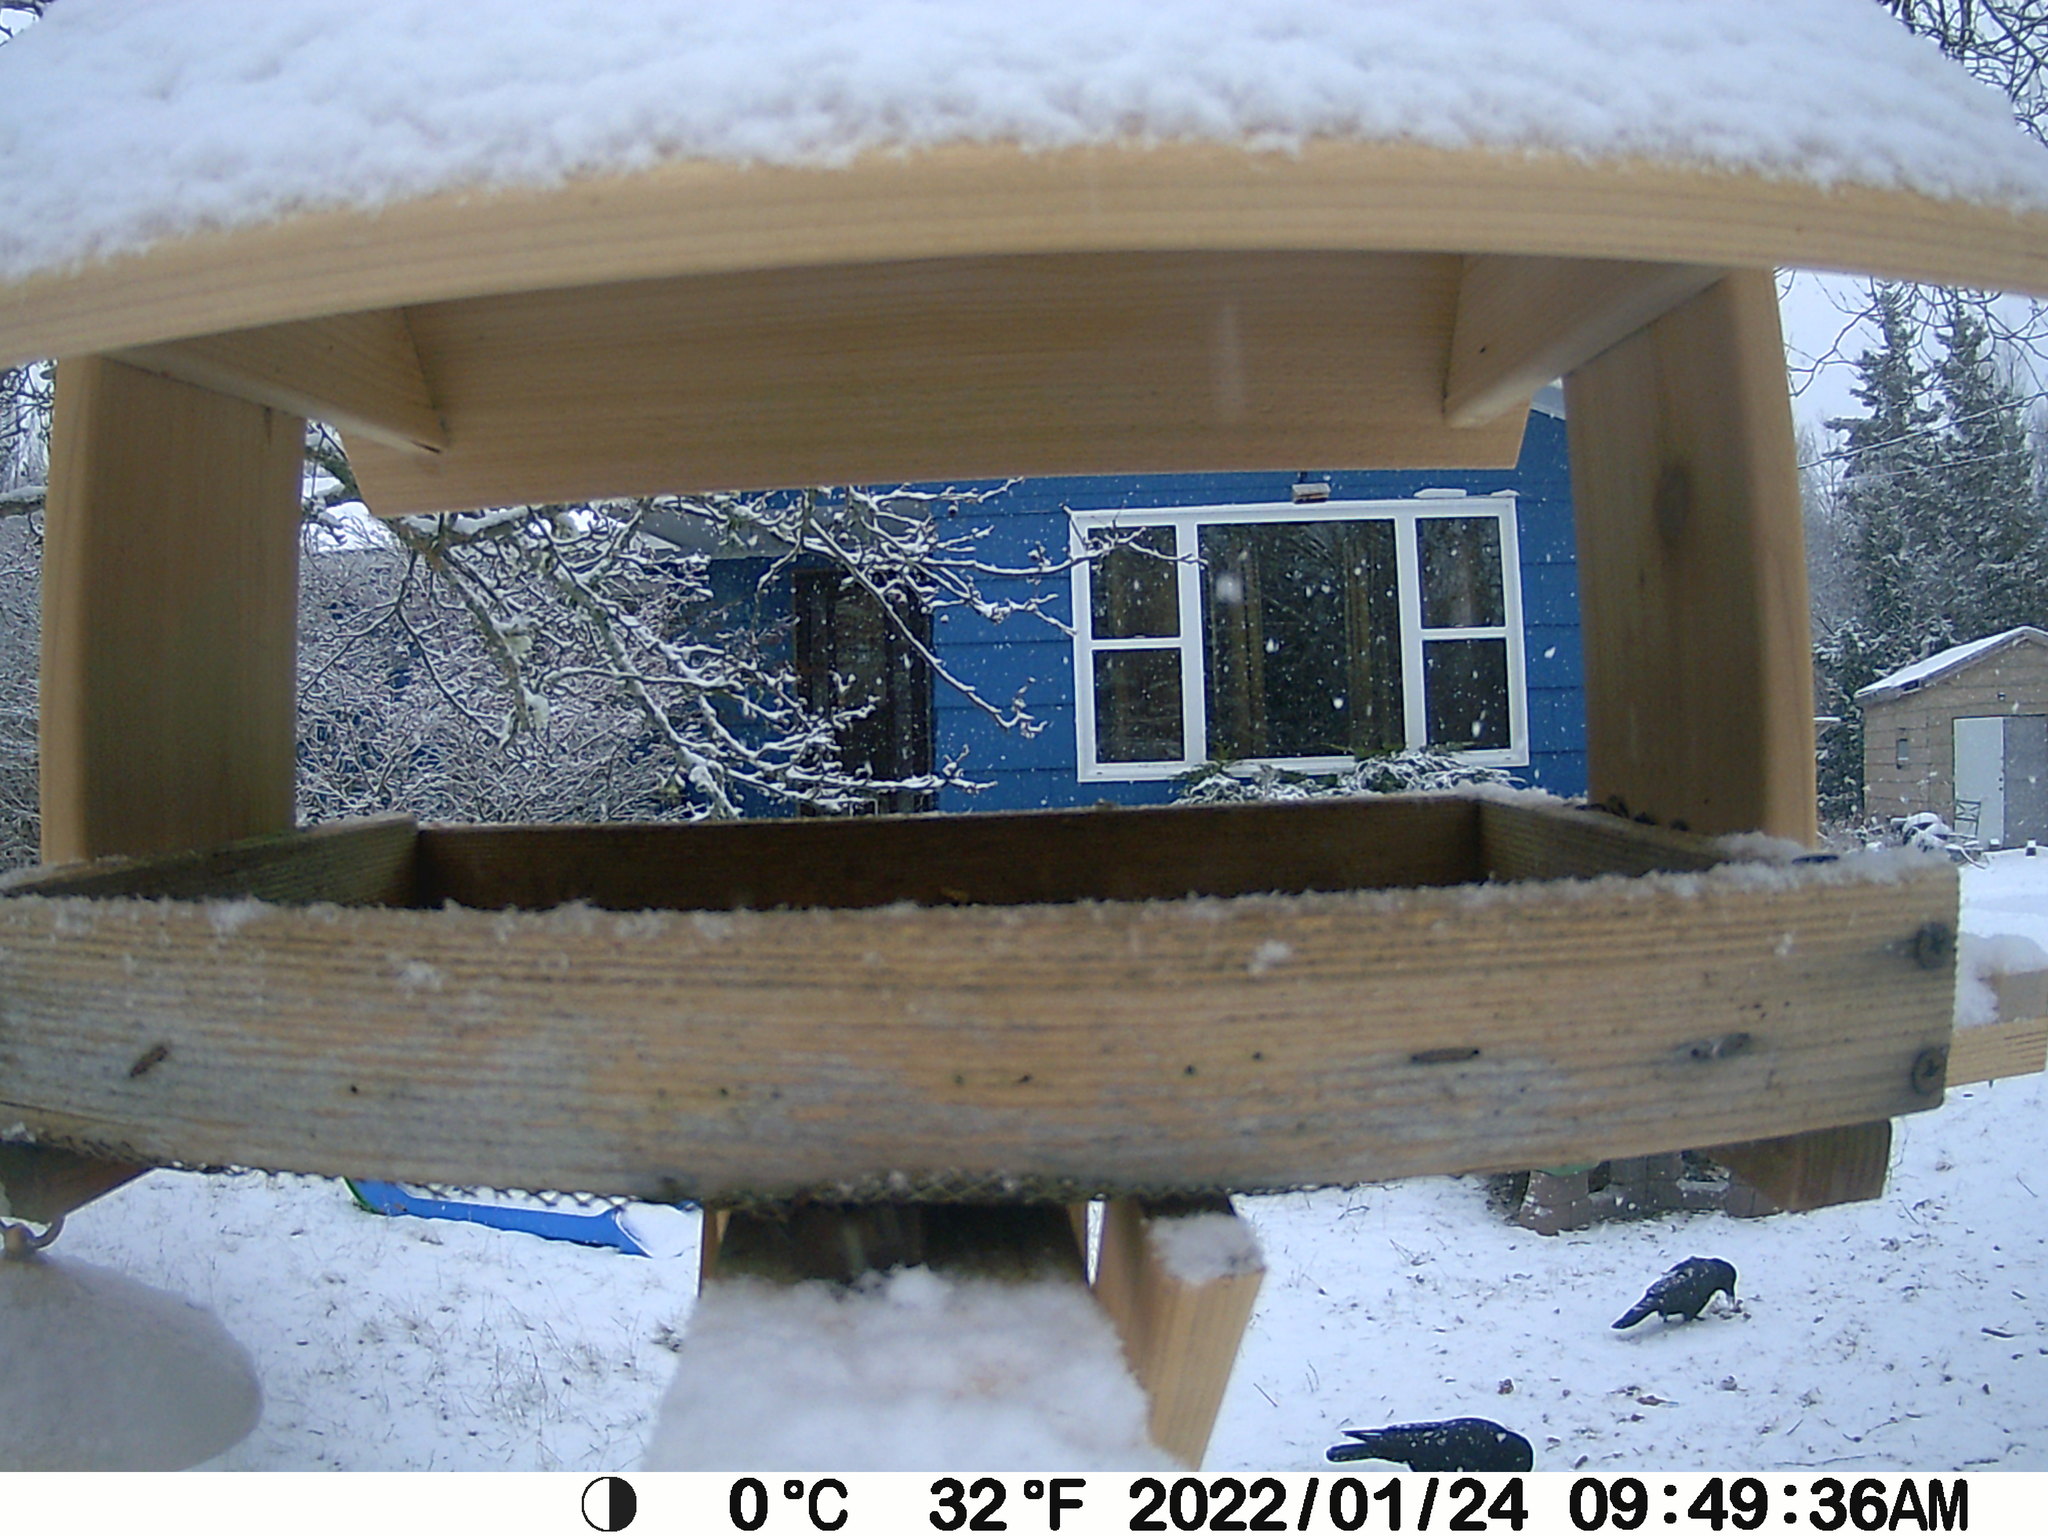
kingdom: Animalia
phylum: Chordata
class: Aves
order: Passeriformes
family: Corvidae
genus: Corvus
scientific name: Corvus brachyrhynchos
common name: American crow
